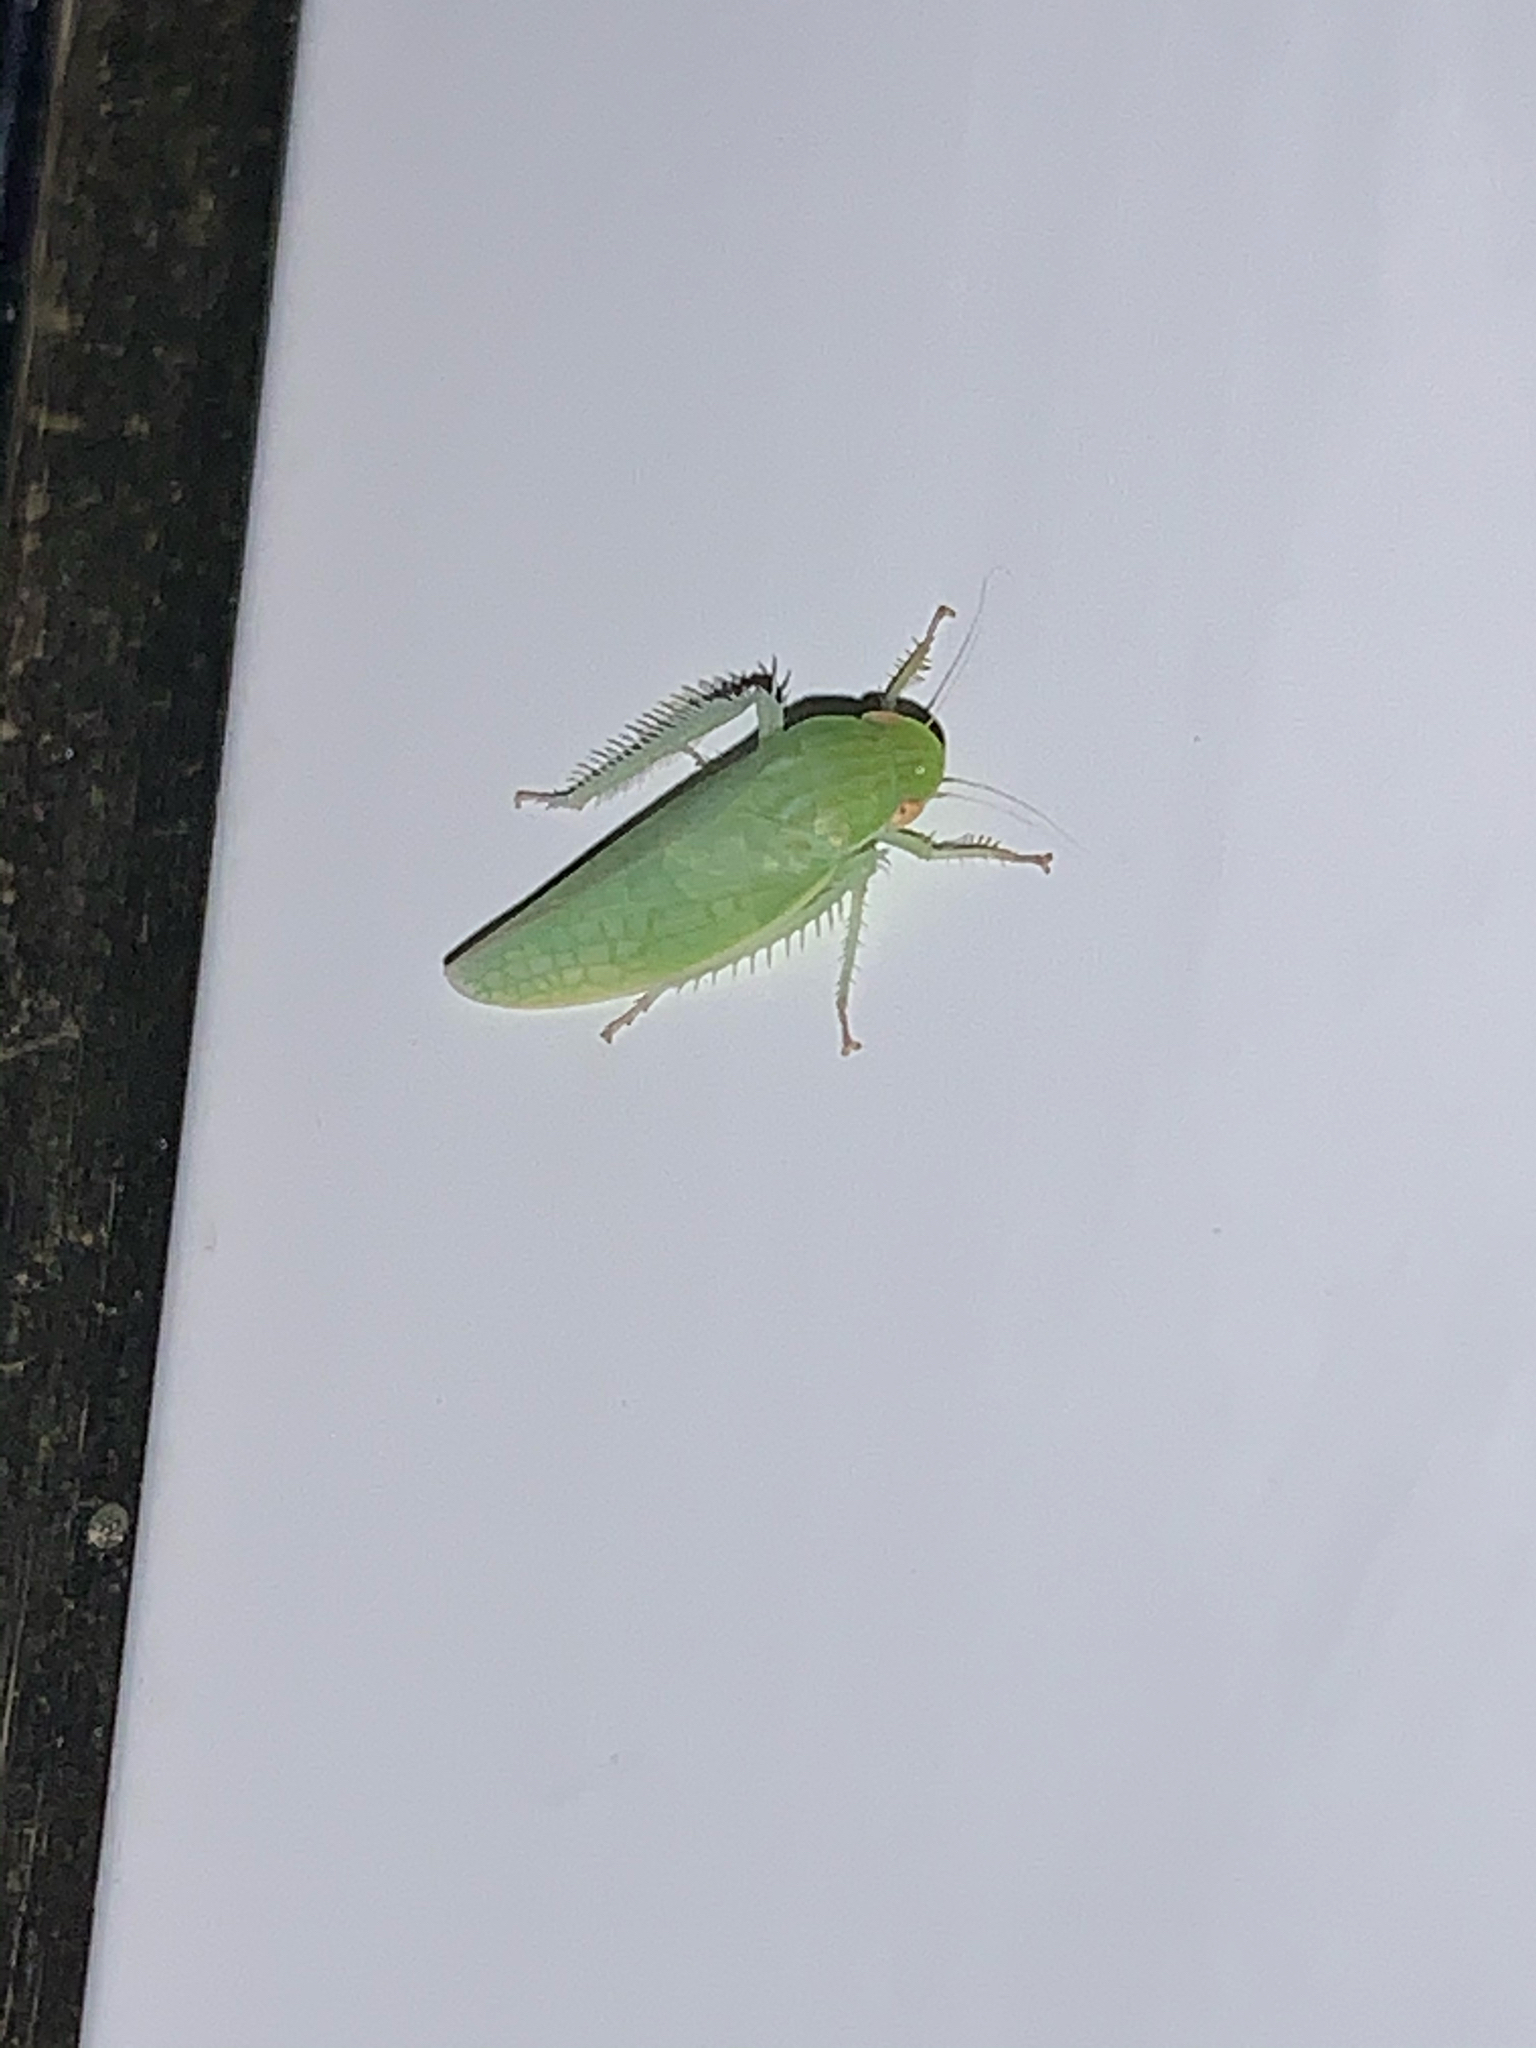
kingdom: Animalia
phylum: Arthropoda
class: Insecta
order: Hemiptera
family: Cicadellidae
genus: Gyponana
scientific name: Gyponana
